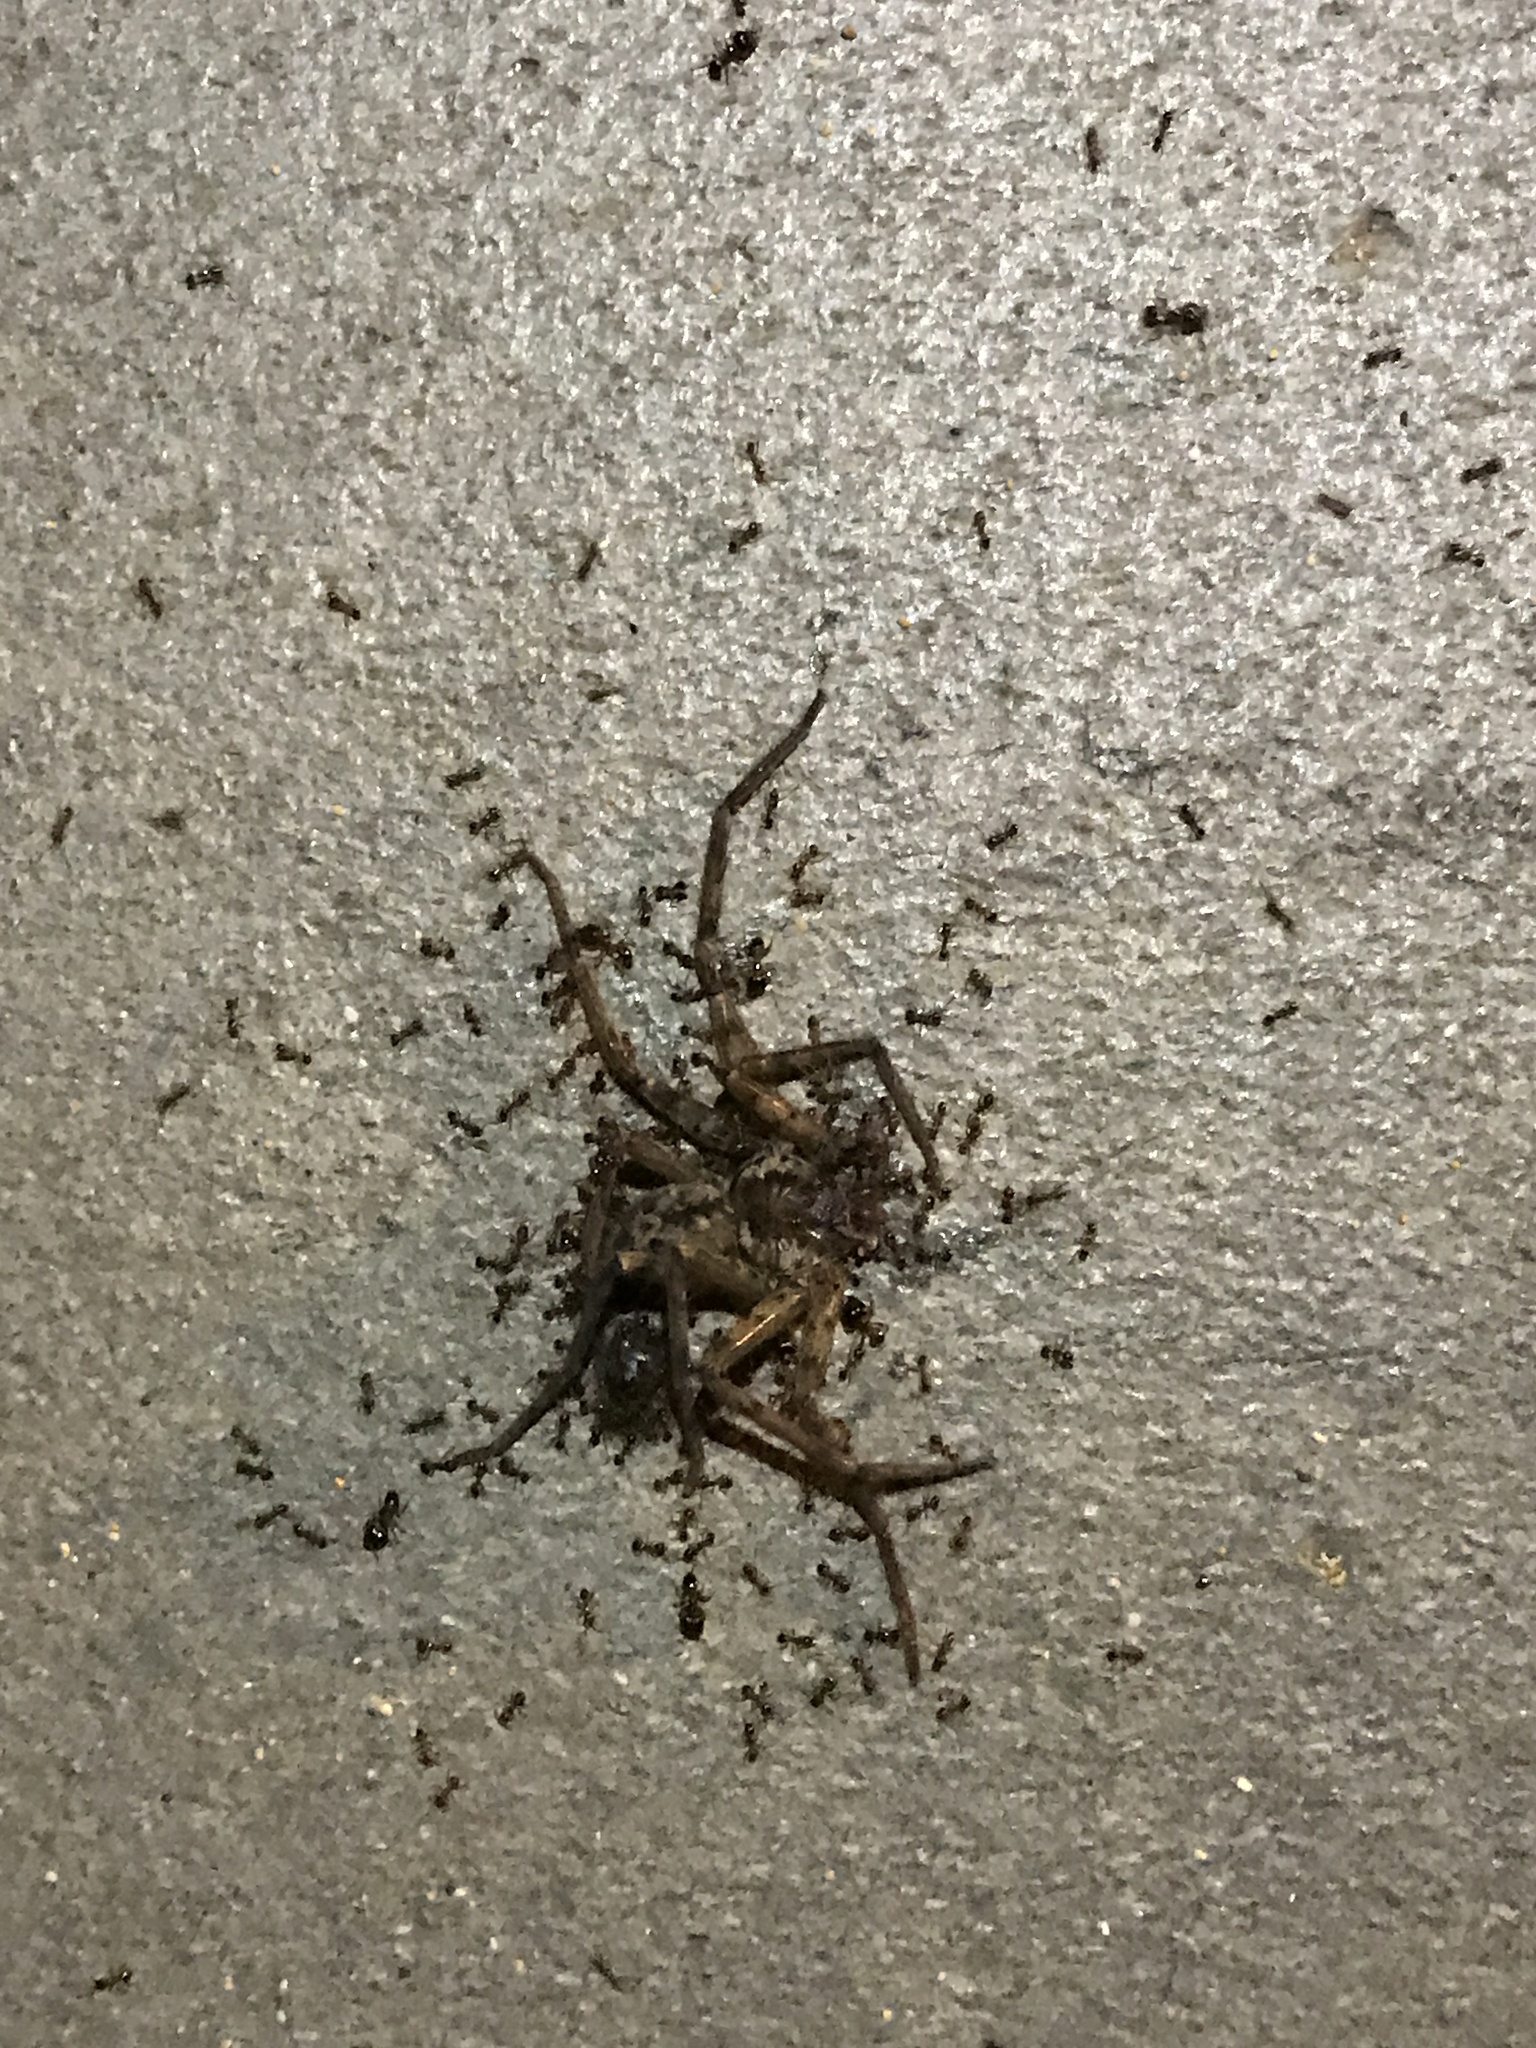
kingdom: Animalia
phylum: Arthropoda
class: Arachnida
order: Araneae
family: Sparassidae
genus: Heteropoda
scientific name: Heteropoda venatoria
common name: Huntsman spider
